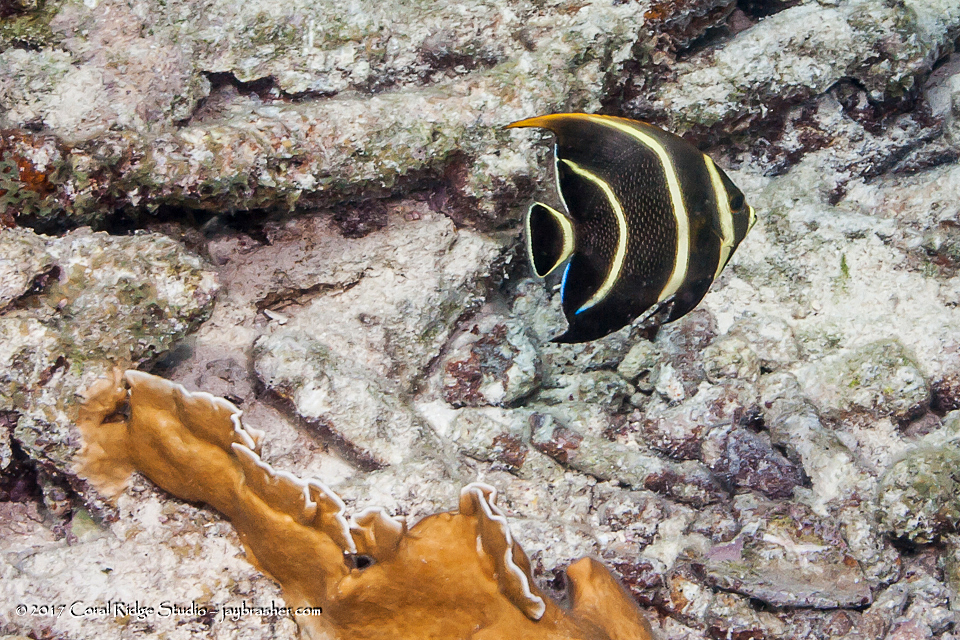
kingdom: Animalia
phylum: Chordata
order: Perciformes
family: Pomacanthidae
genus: Pomacanthus
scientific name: Pomacanthus paru
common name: French angelfish
